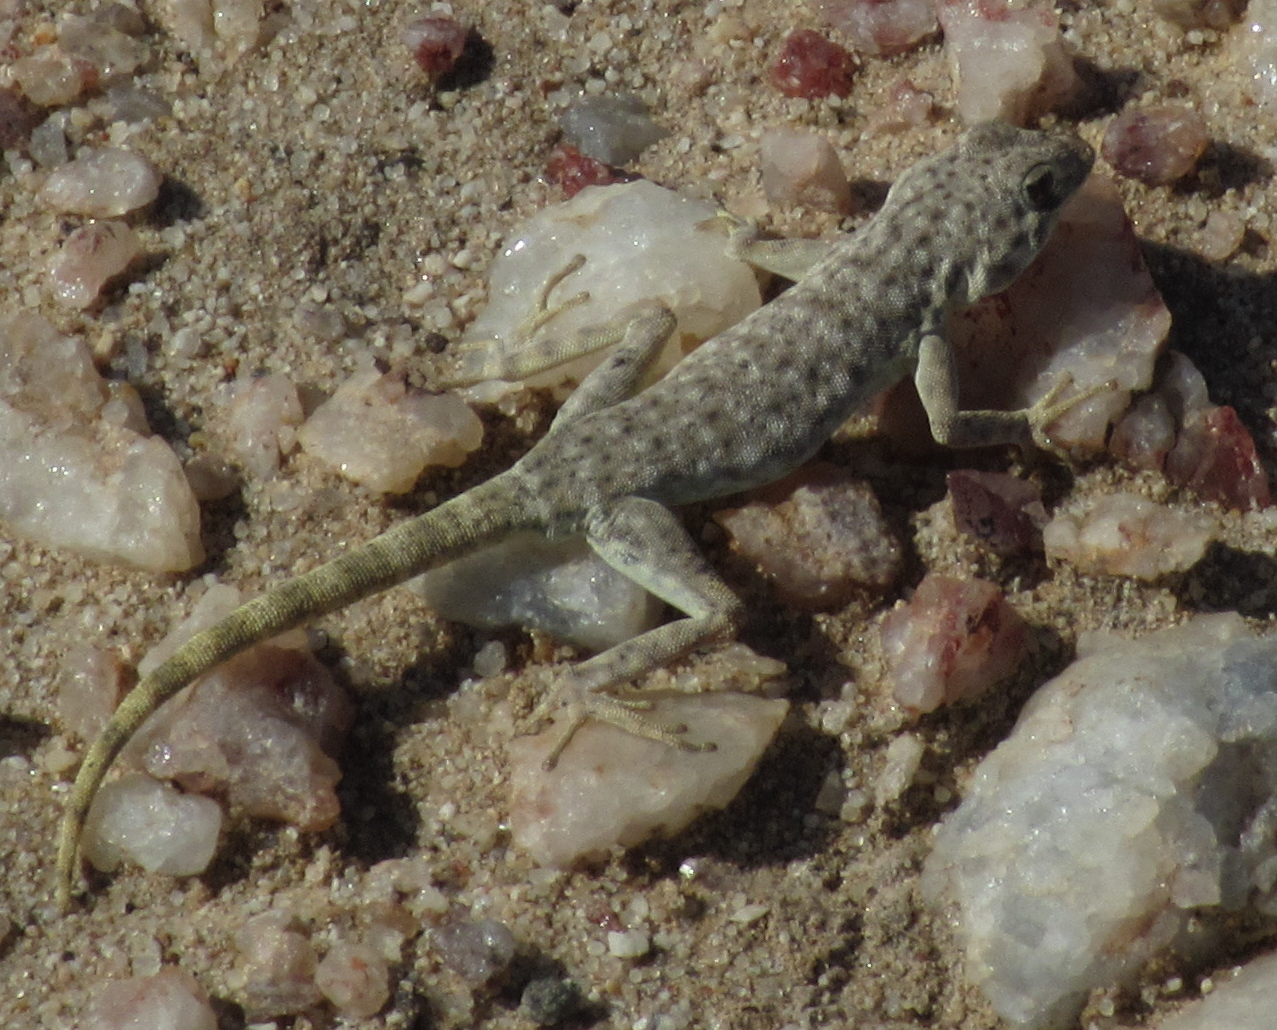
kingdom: Animalia
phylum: Chordata
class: Squamata
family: Gekkonidae
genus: Rhoptropus
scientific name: Rhoptropus afer
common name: Namib day gecko
